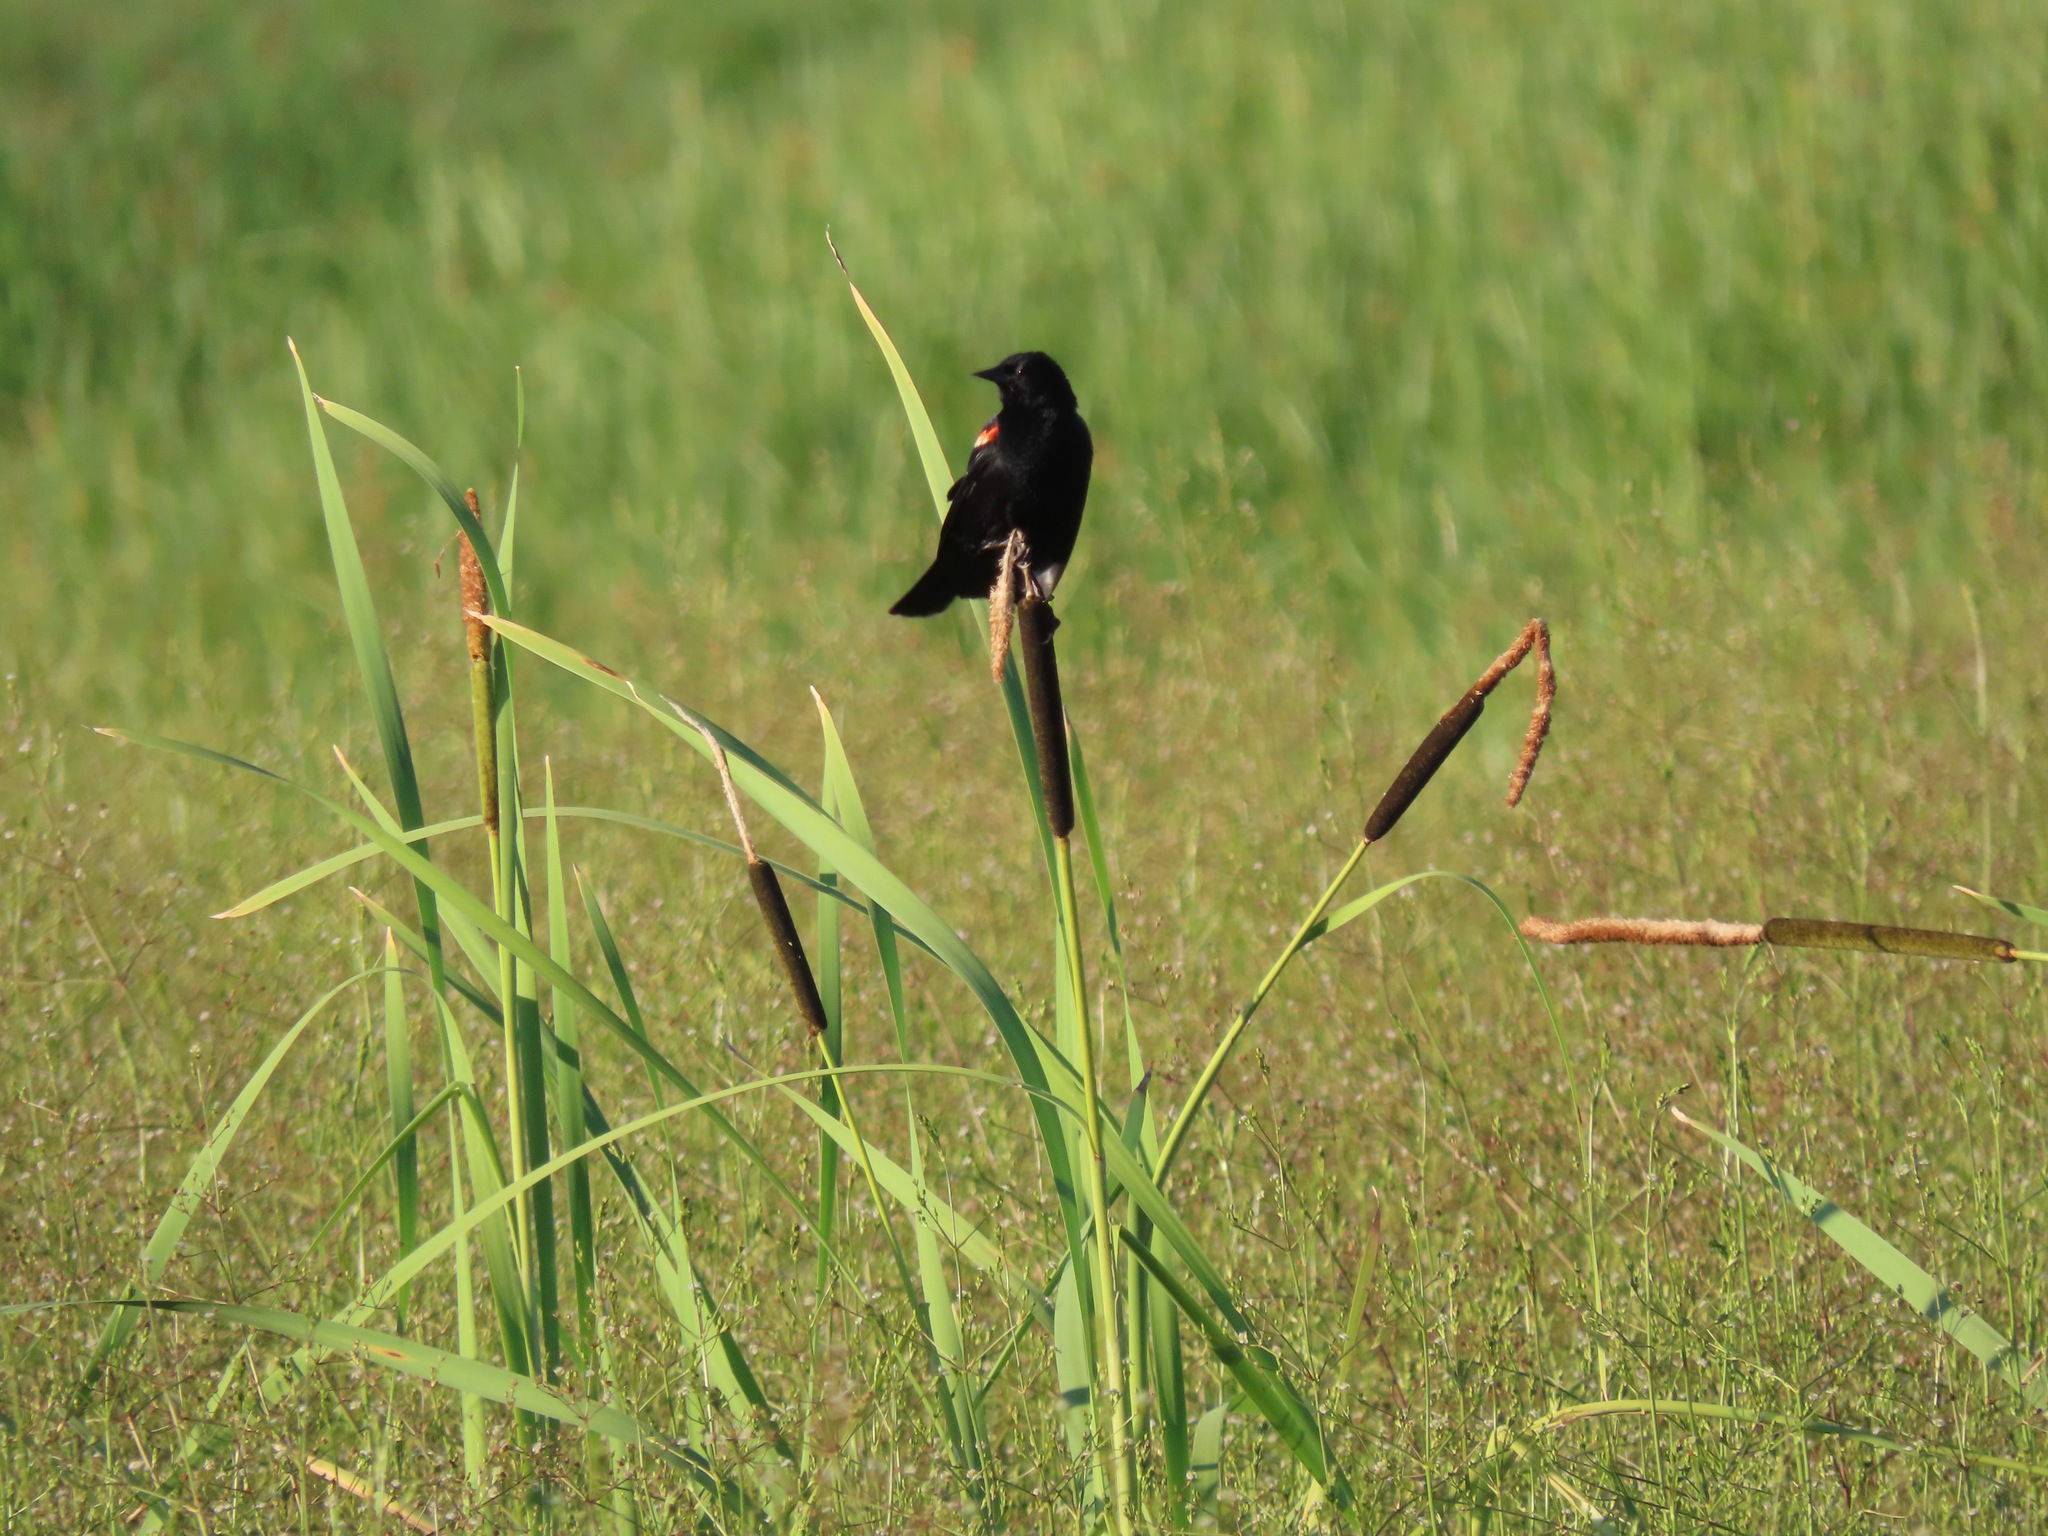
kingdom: Animalia
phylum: Chordata
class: Aves
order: Passeriformes
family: Icteridae
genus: Agelaius
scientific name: Agelaius phoeniceus
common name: Red-winged blackbird
